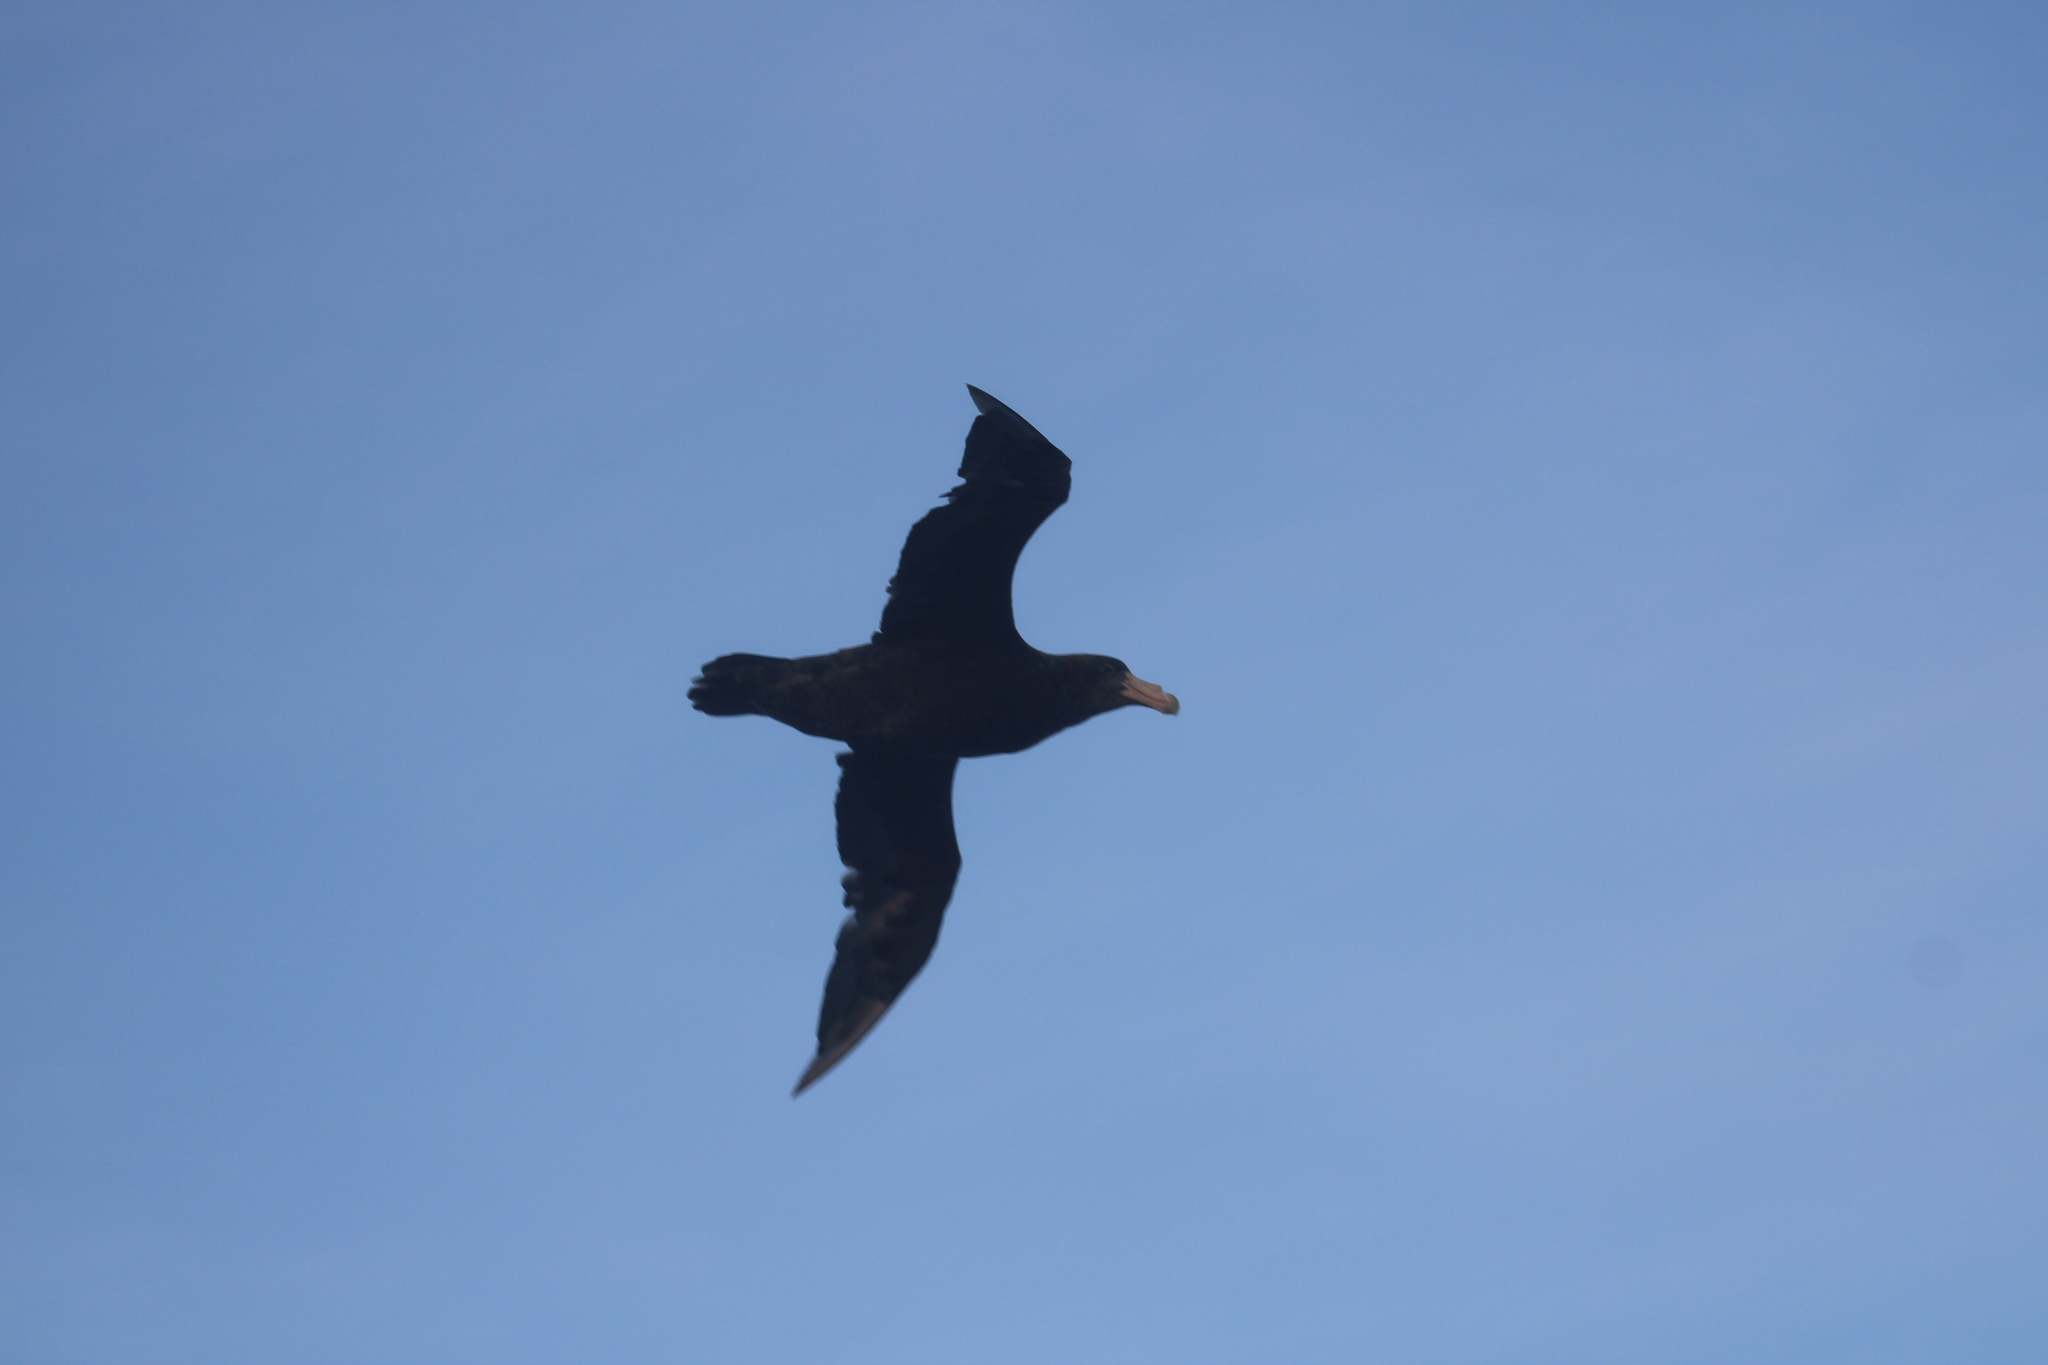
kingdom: Animalia
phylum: Chordata
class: Aves
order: Procellariiformes
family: Procellariidae
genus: Macronectes
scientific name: Macronectes giganteus
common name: Southern giant petrel
